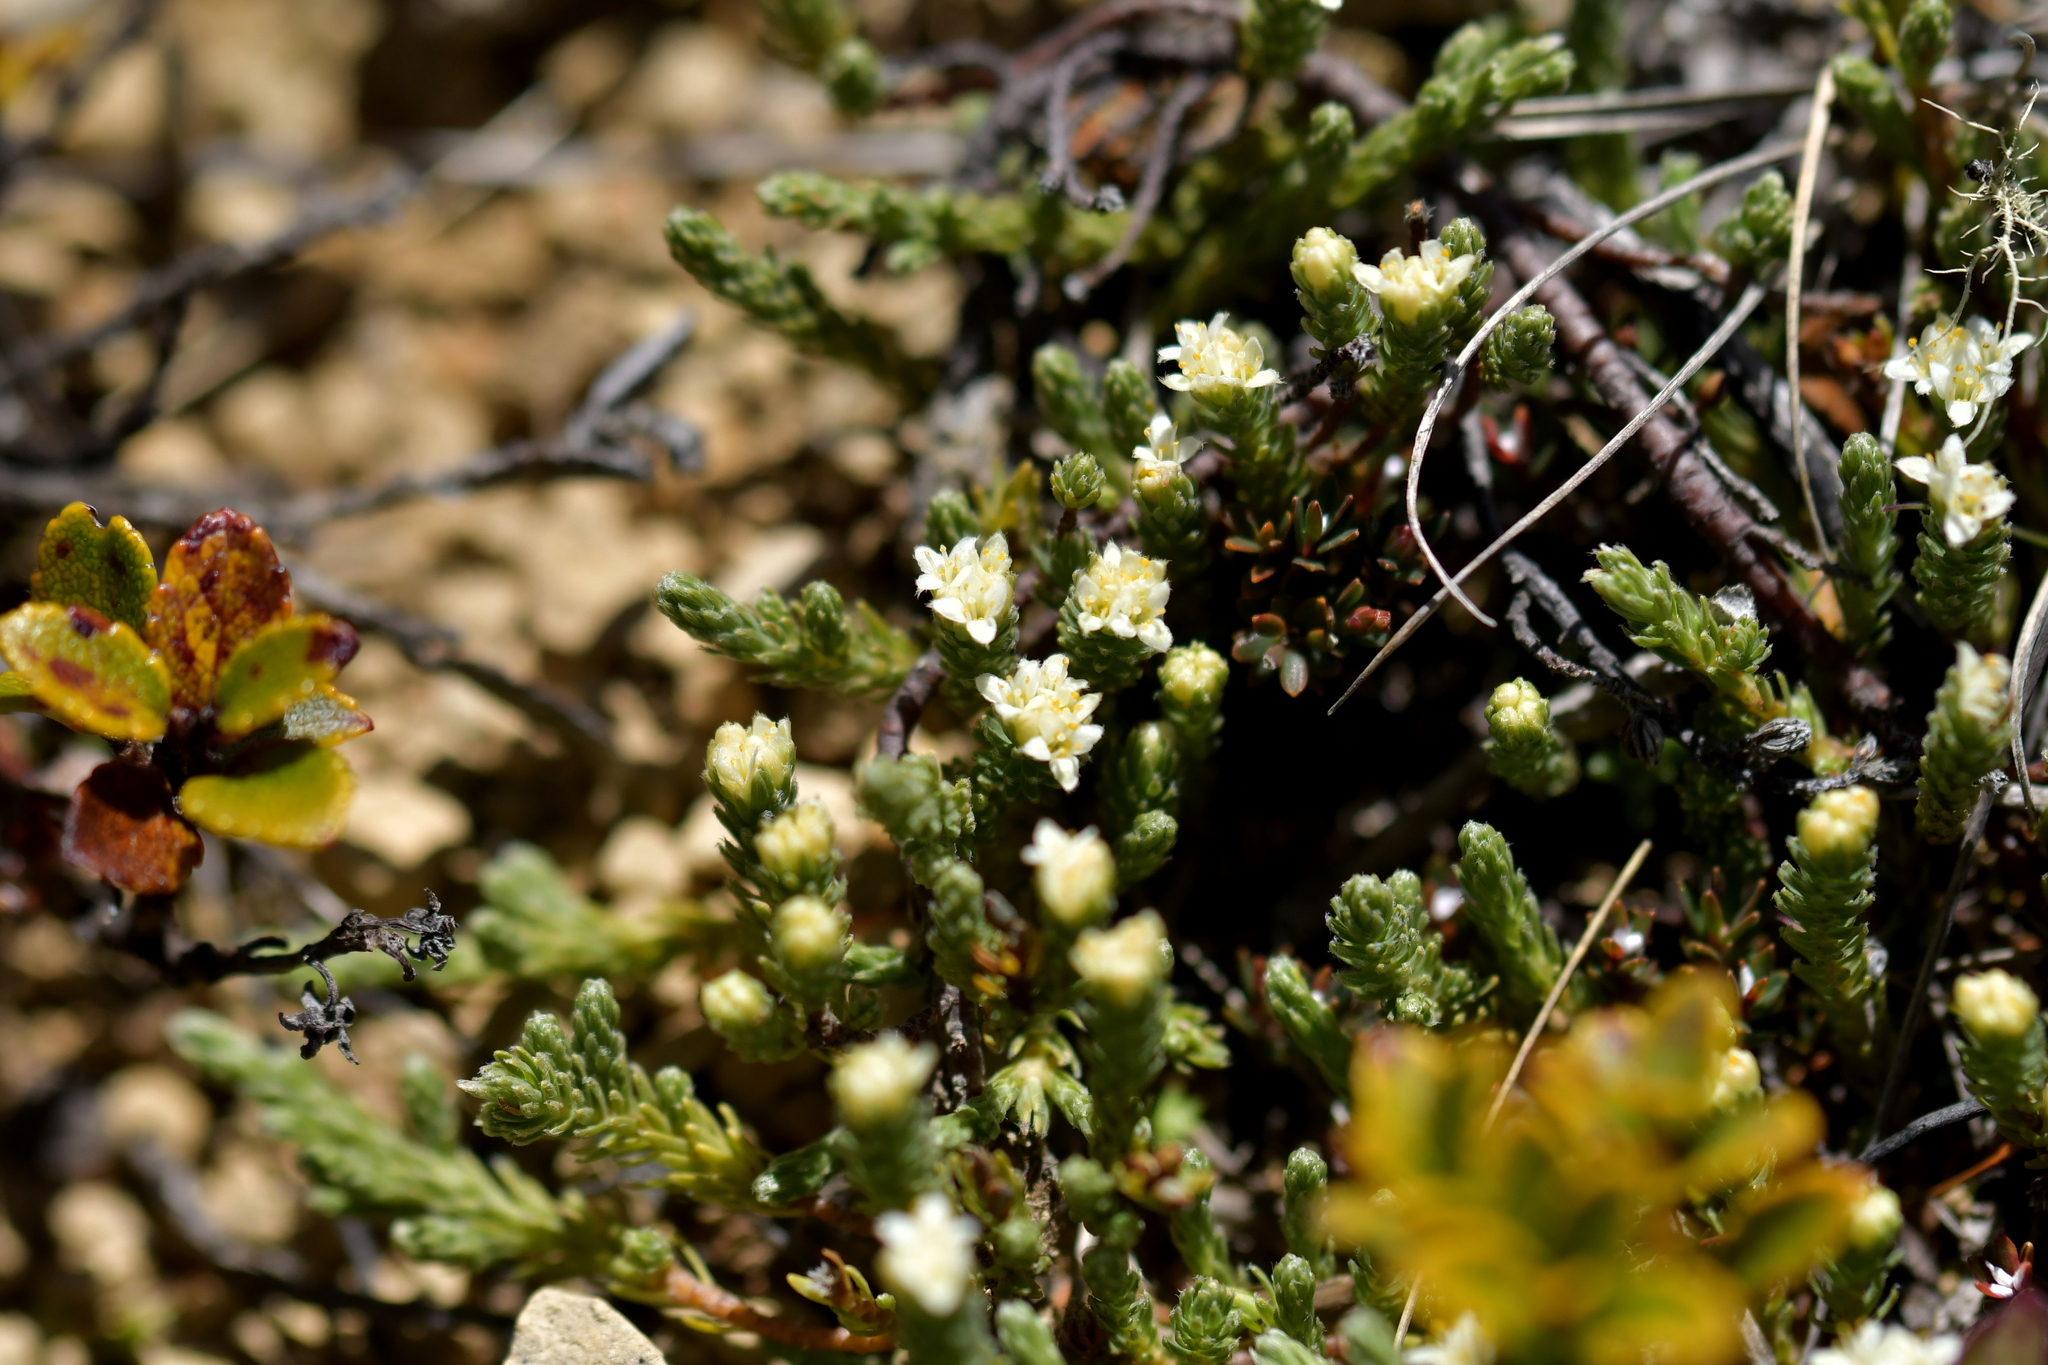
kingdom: Plantae
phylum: Tracheophyta
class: Magnoliopsida
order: Malvales
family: Thymelaeaceae
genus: Kelleria
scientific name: Kelleria dieffenbachii
